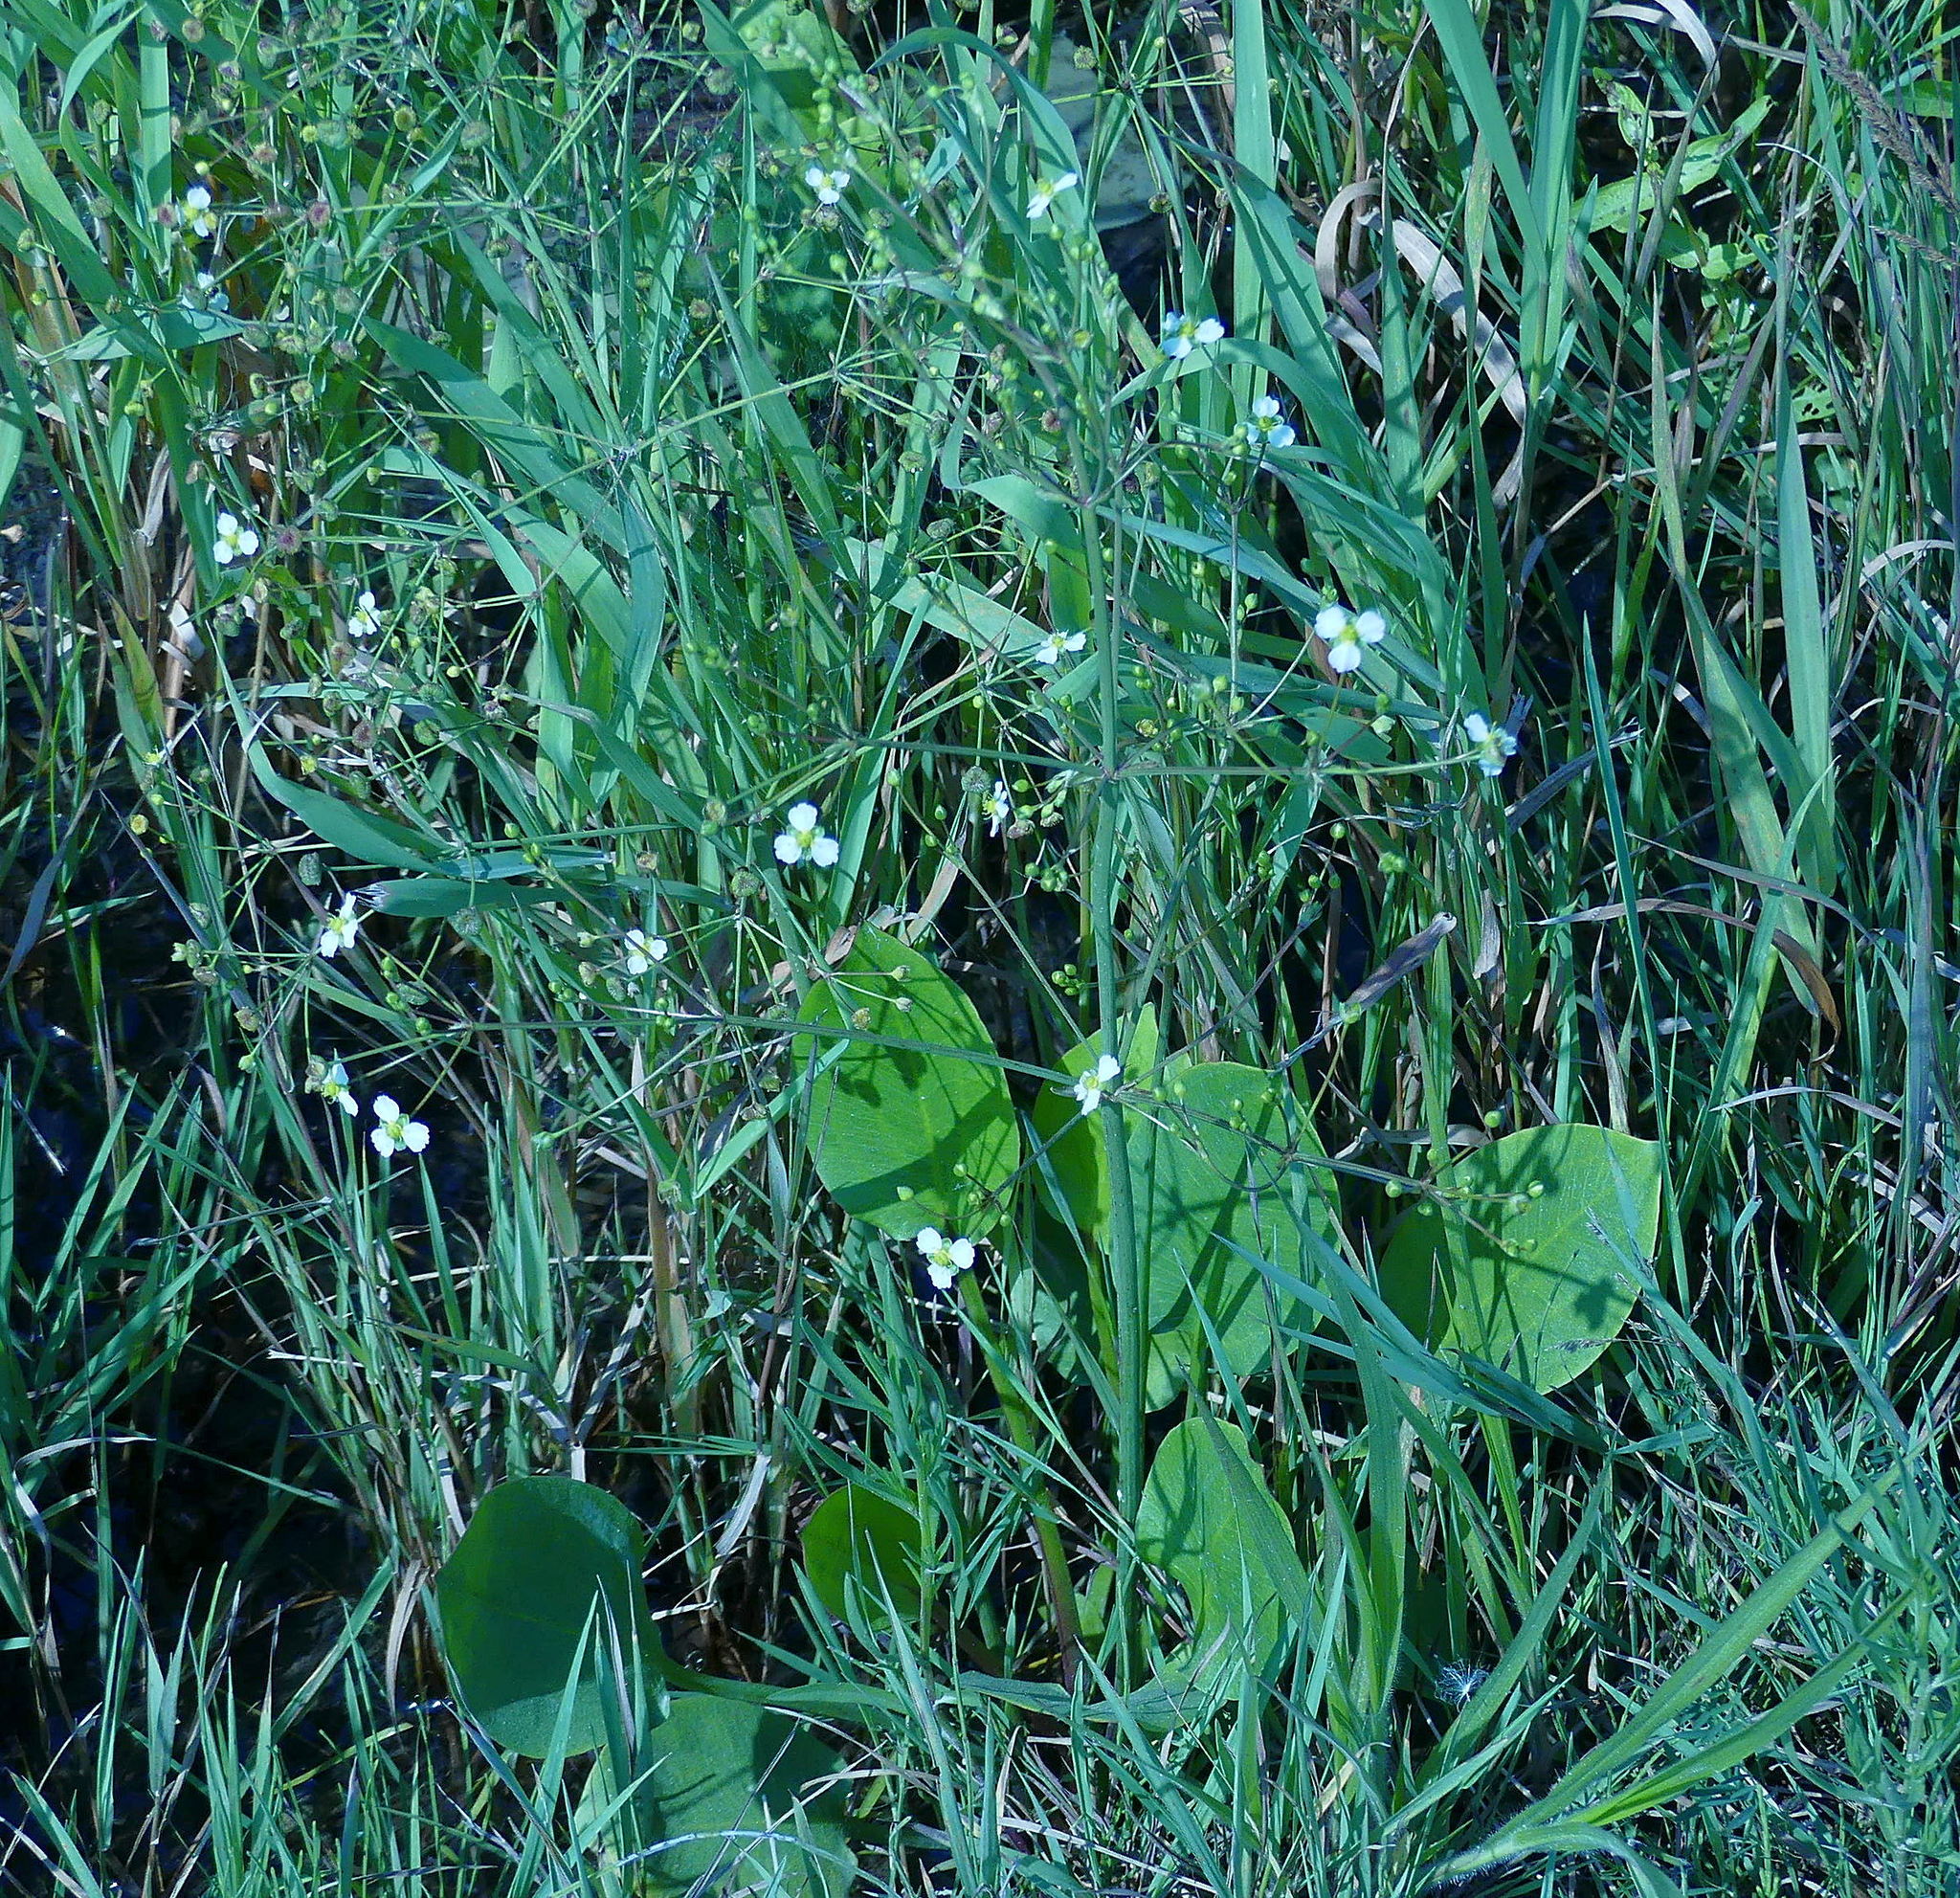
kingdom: Plantae
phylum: Tracheophyta
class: Liliopsida
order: Alismatales
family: Alismataceae
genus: Alisma
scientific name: Alisma triviale
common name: Northern water-plantain
